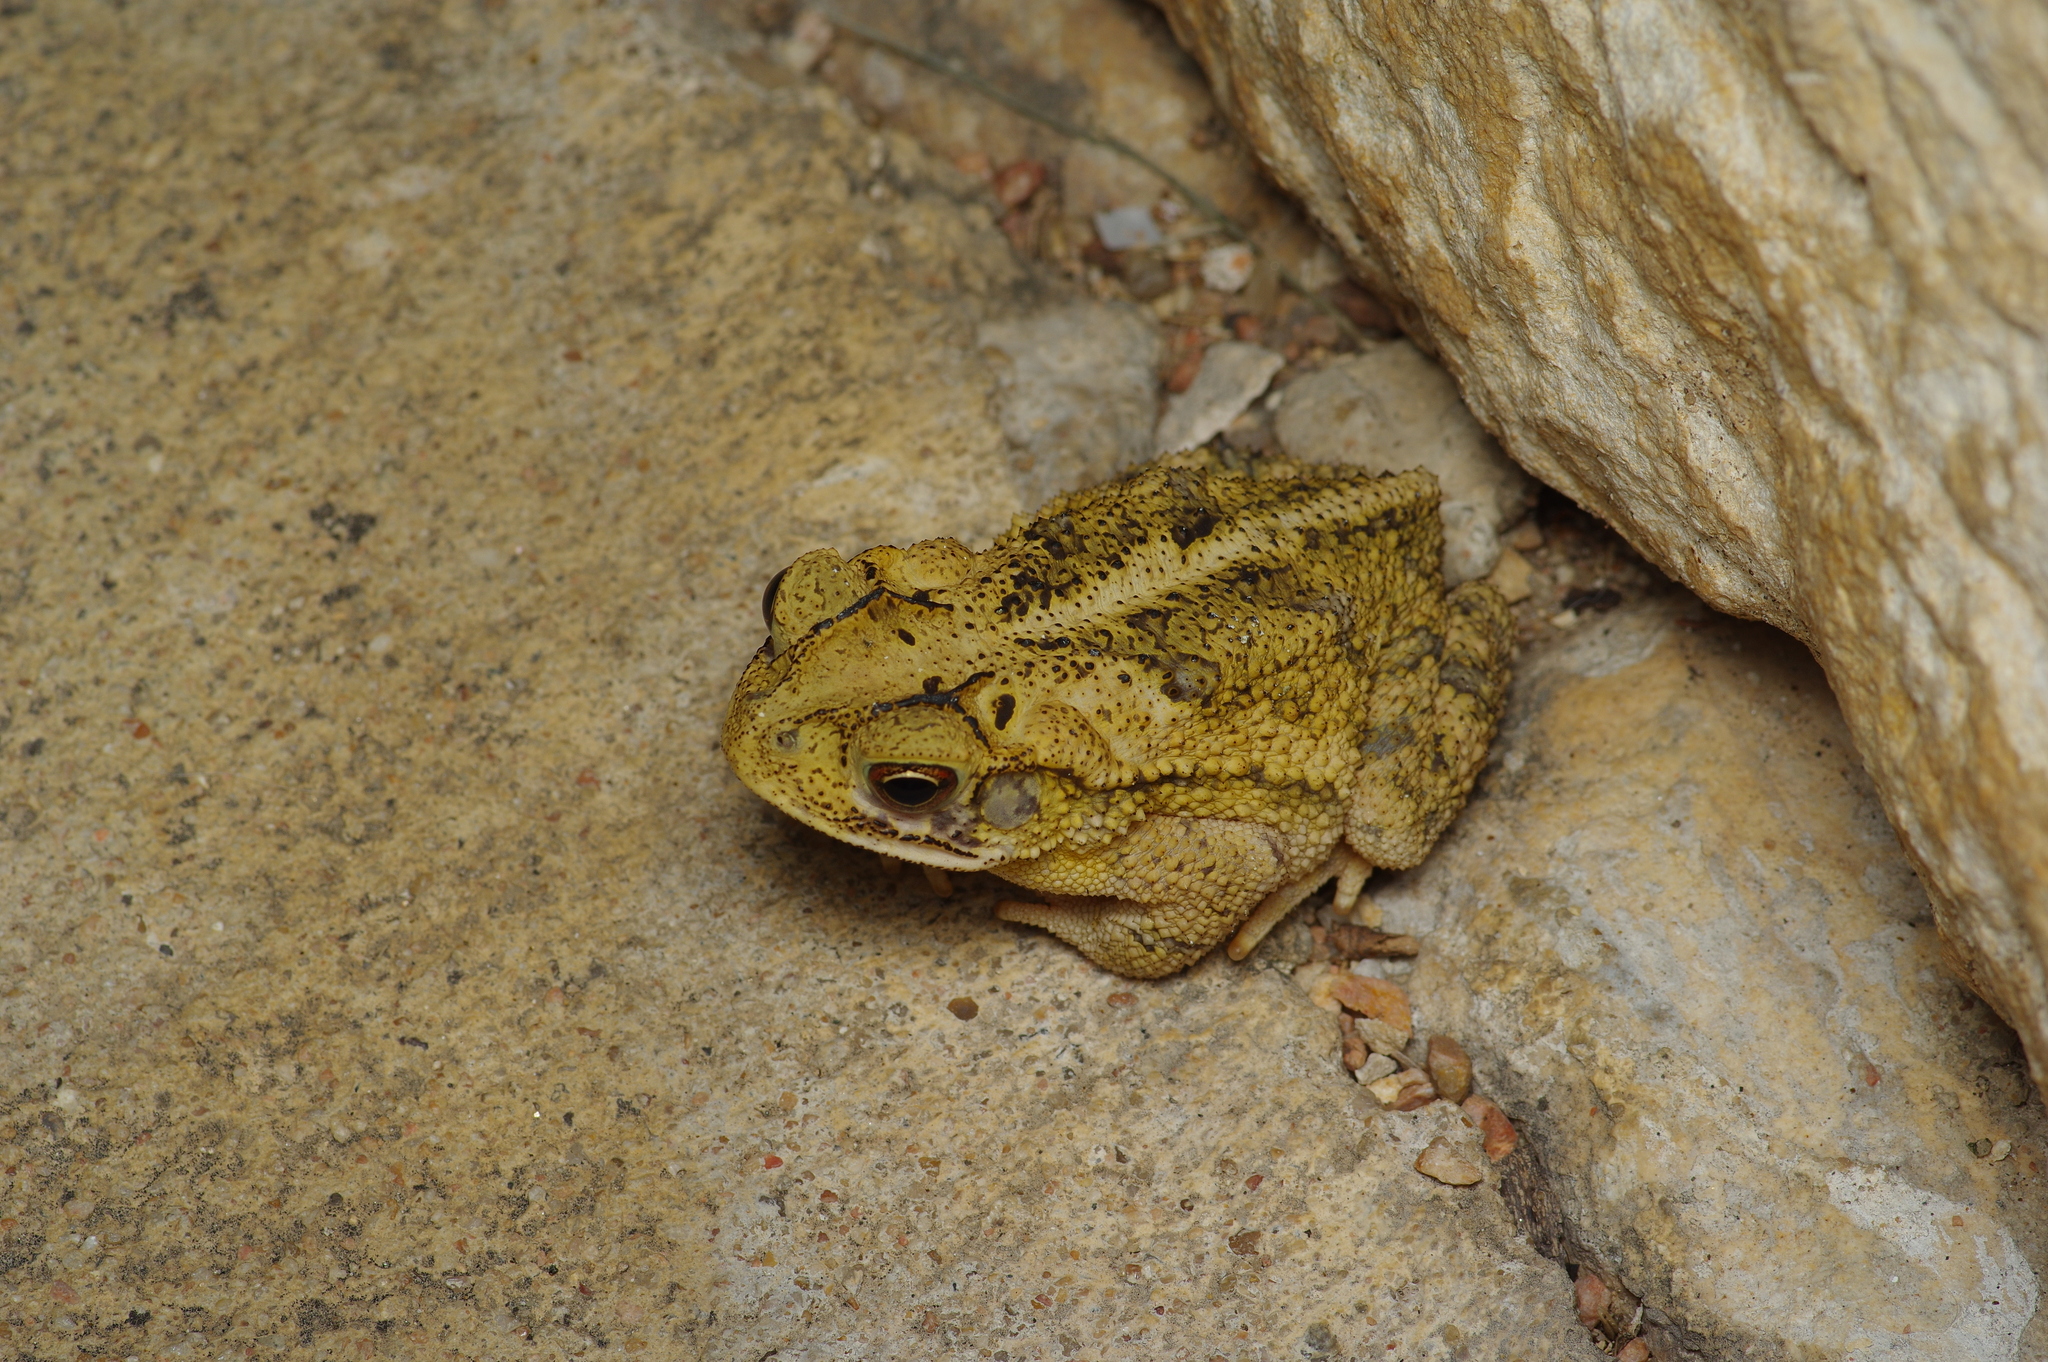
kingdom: Animalia
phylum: Chordata
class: Amphibia
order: Anura
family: Bufonidae
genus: Incilius
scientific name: Incilius nebulifer
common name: Gulf coast toad
